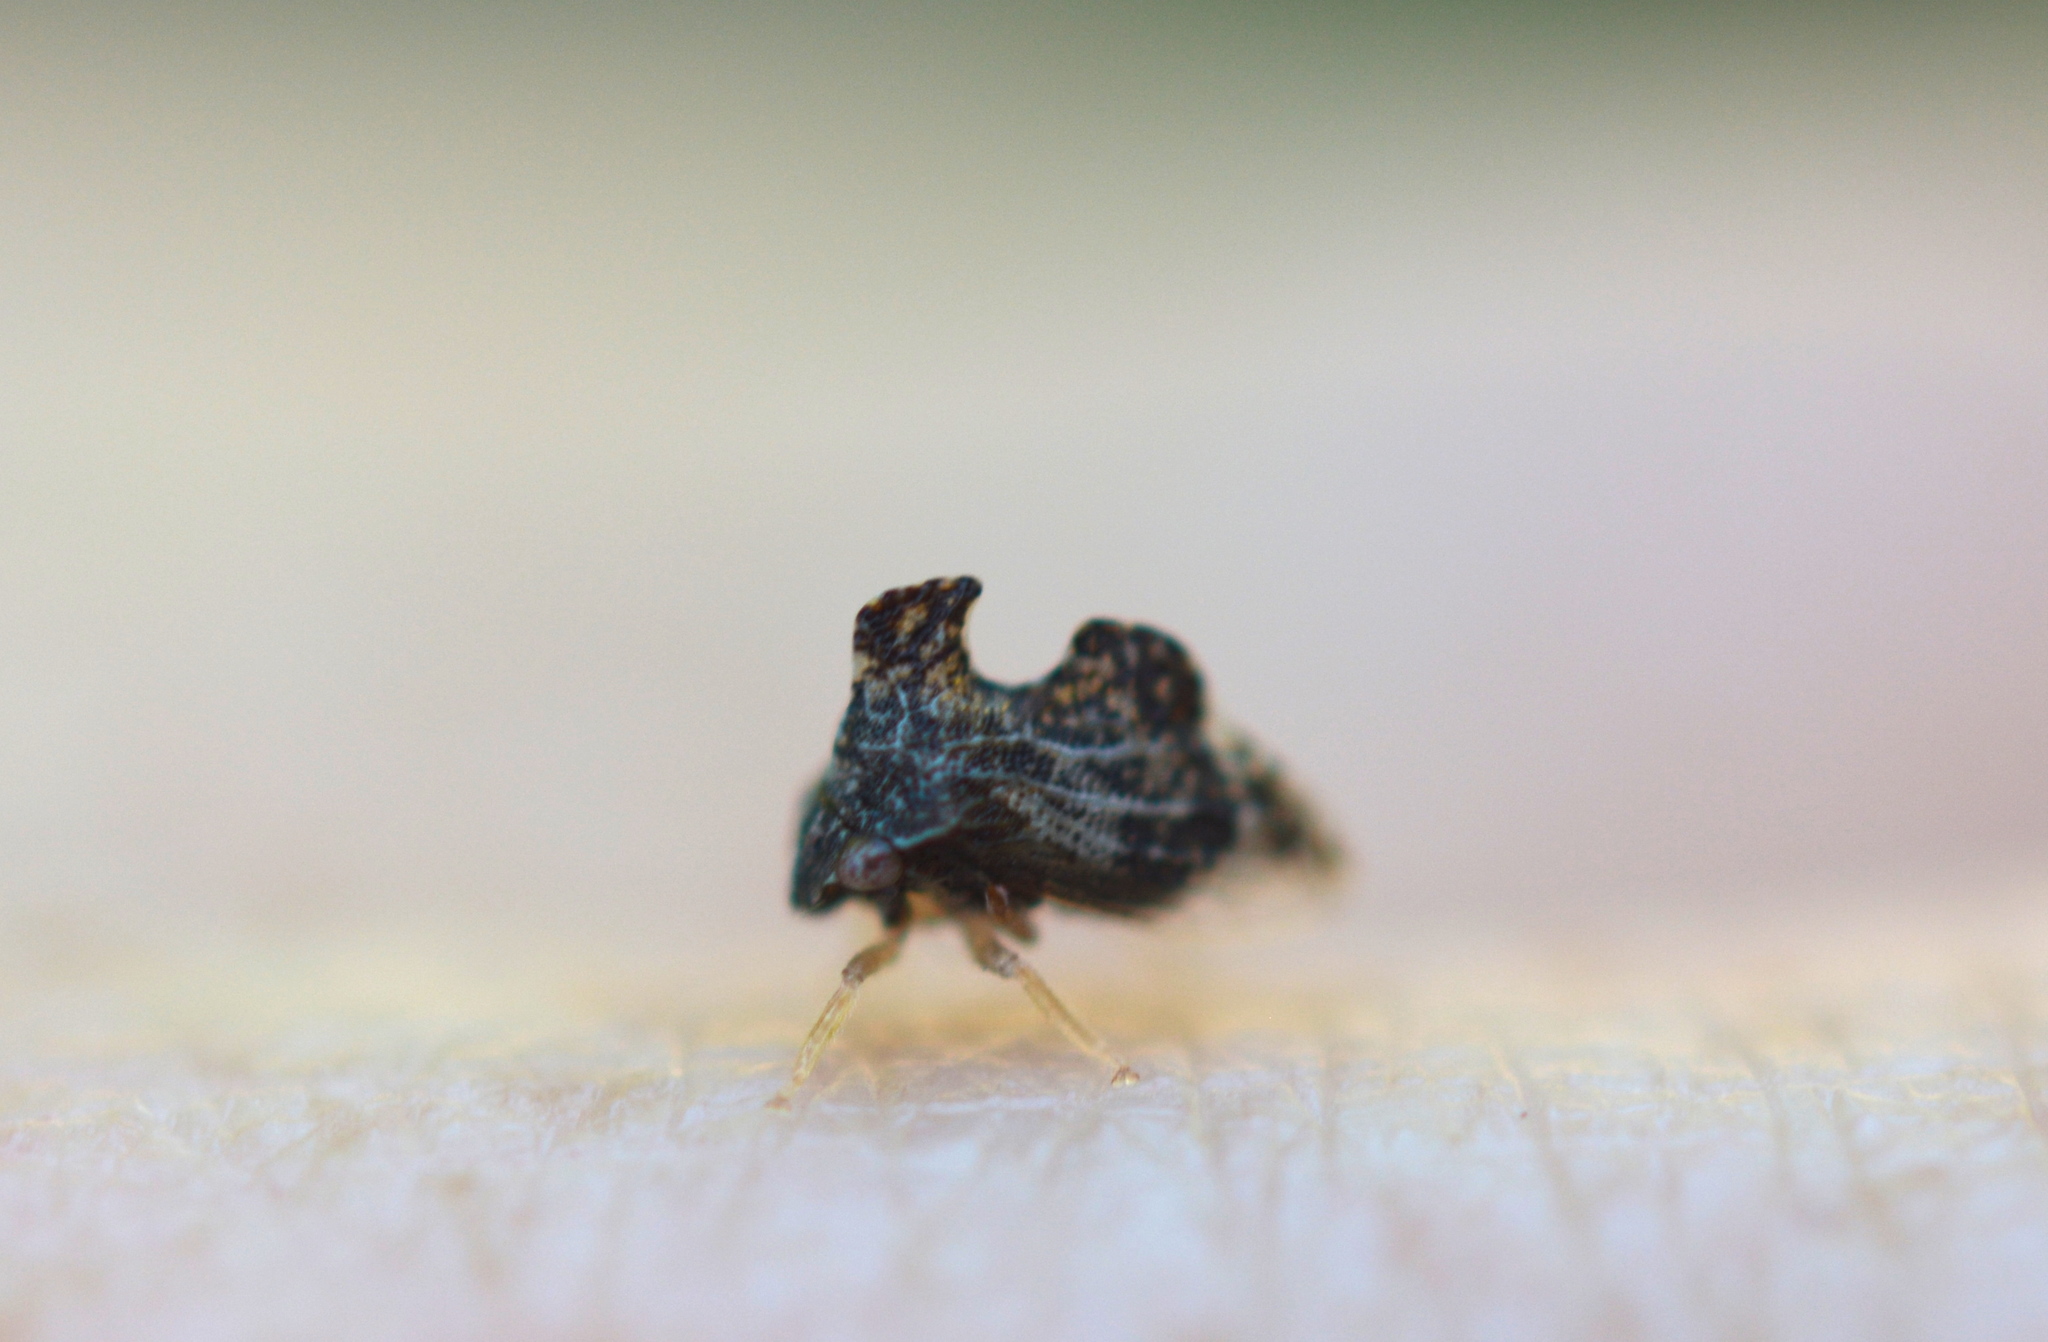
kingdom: Animalia
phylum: Arthropoda
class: Insecta
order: Hemiptera
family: Membracidae
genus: Entylia
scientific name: Entylia carinata
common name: Keeled treehopper
